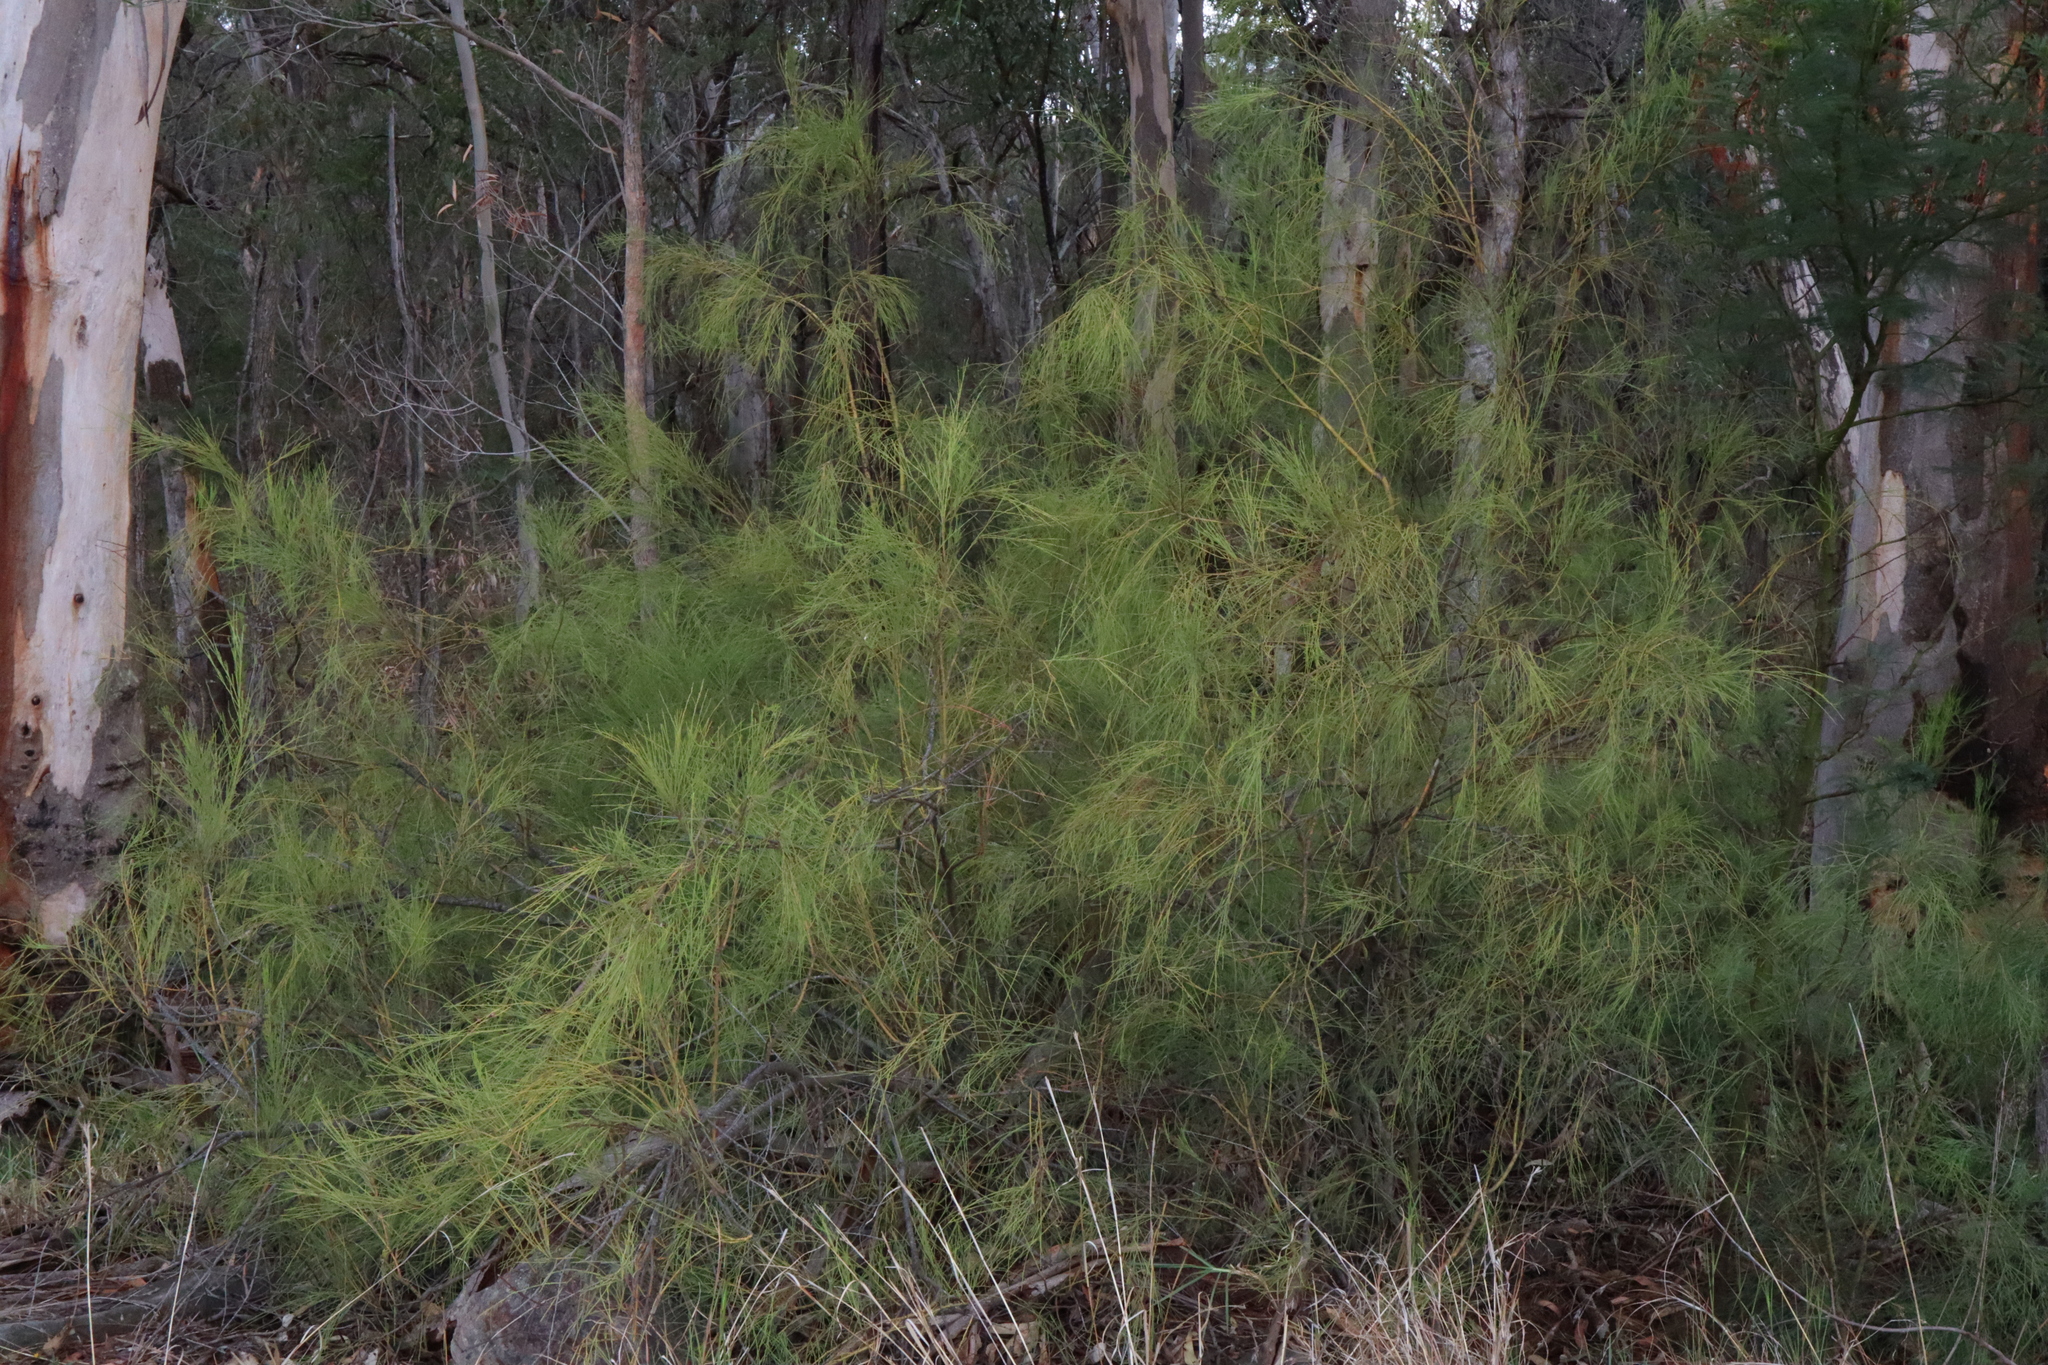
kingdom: Plantae
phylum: Tracheophyta
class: Magnoliopsida
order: Santalales
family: Santalaceae
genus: Exocarpos
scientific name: Exocarpos strictus
